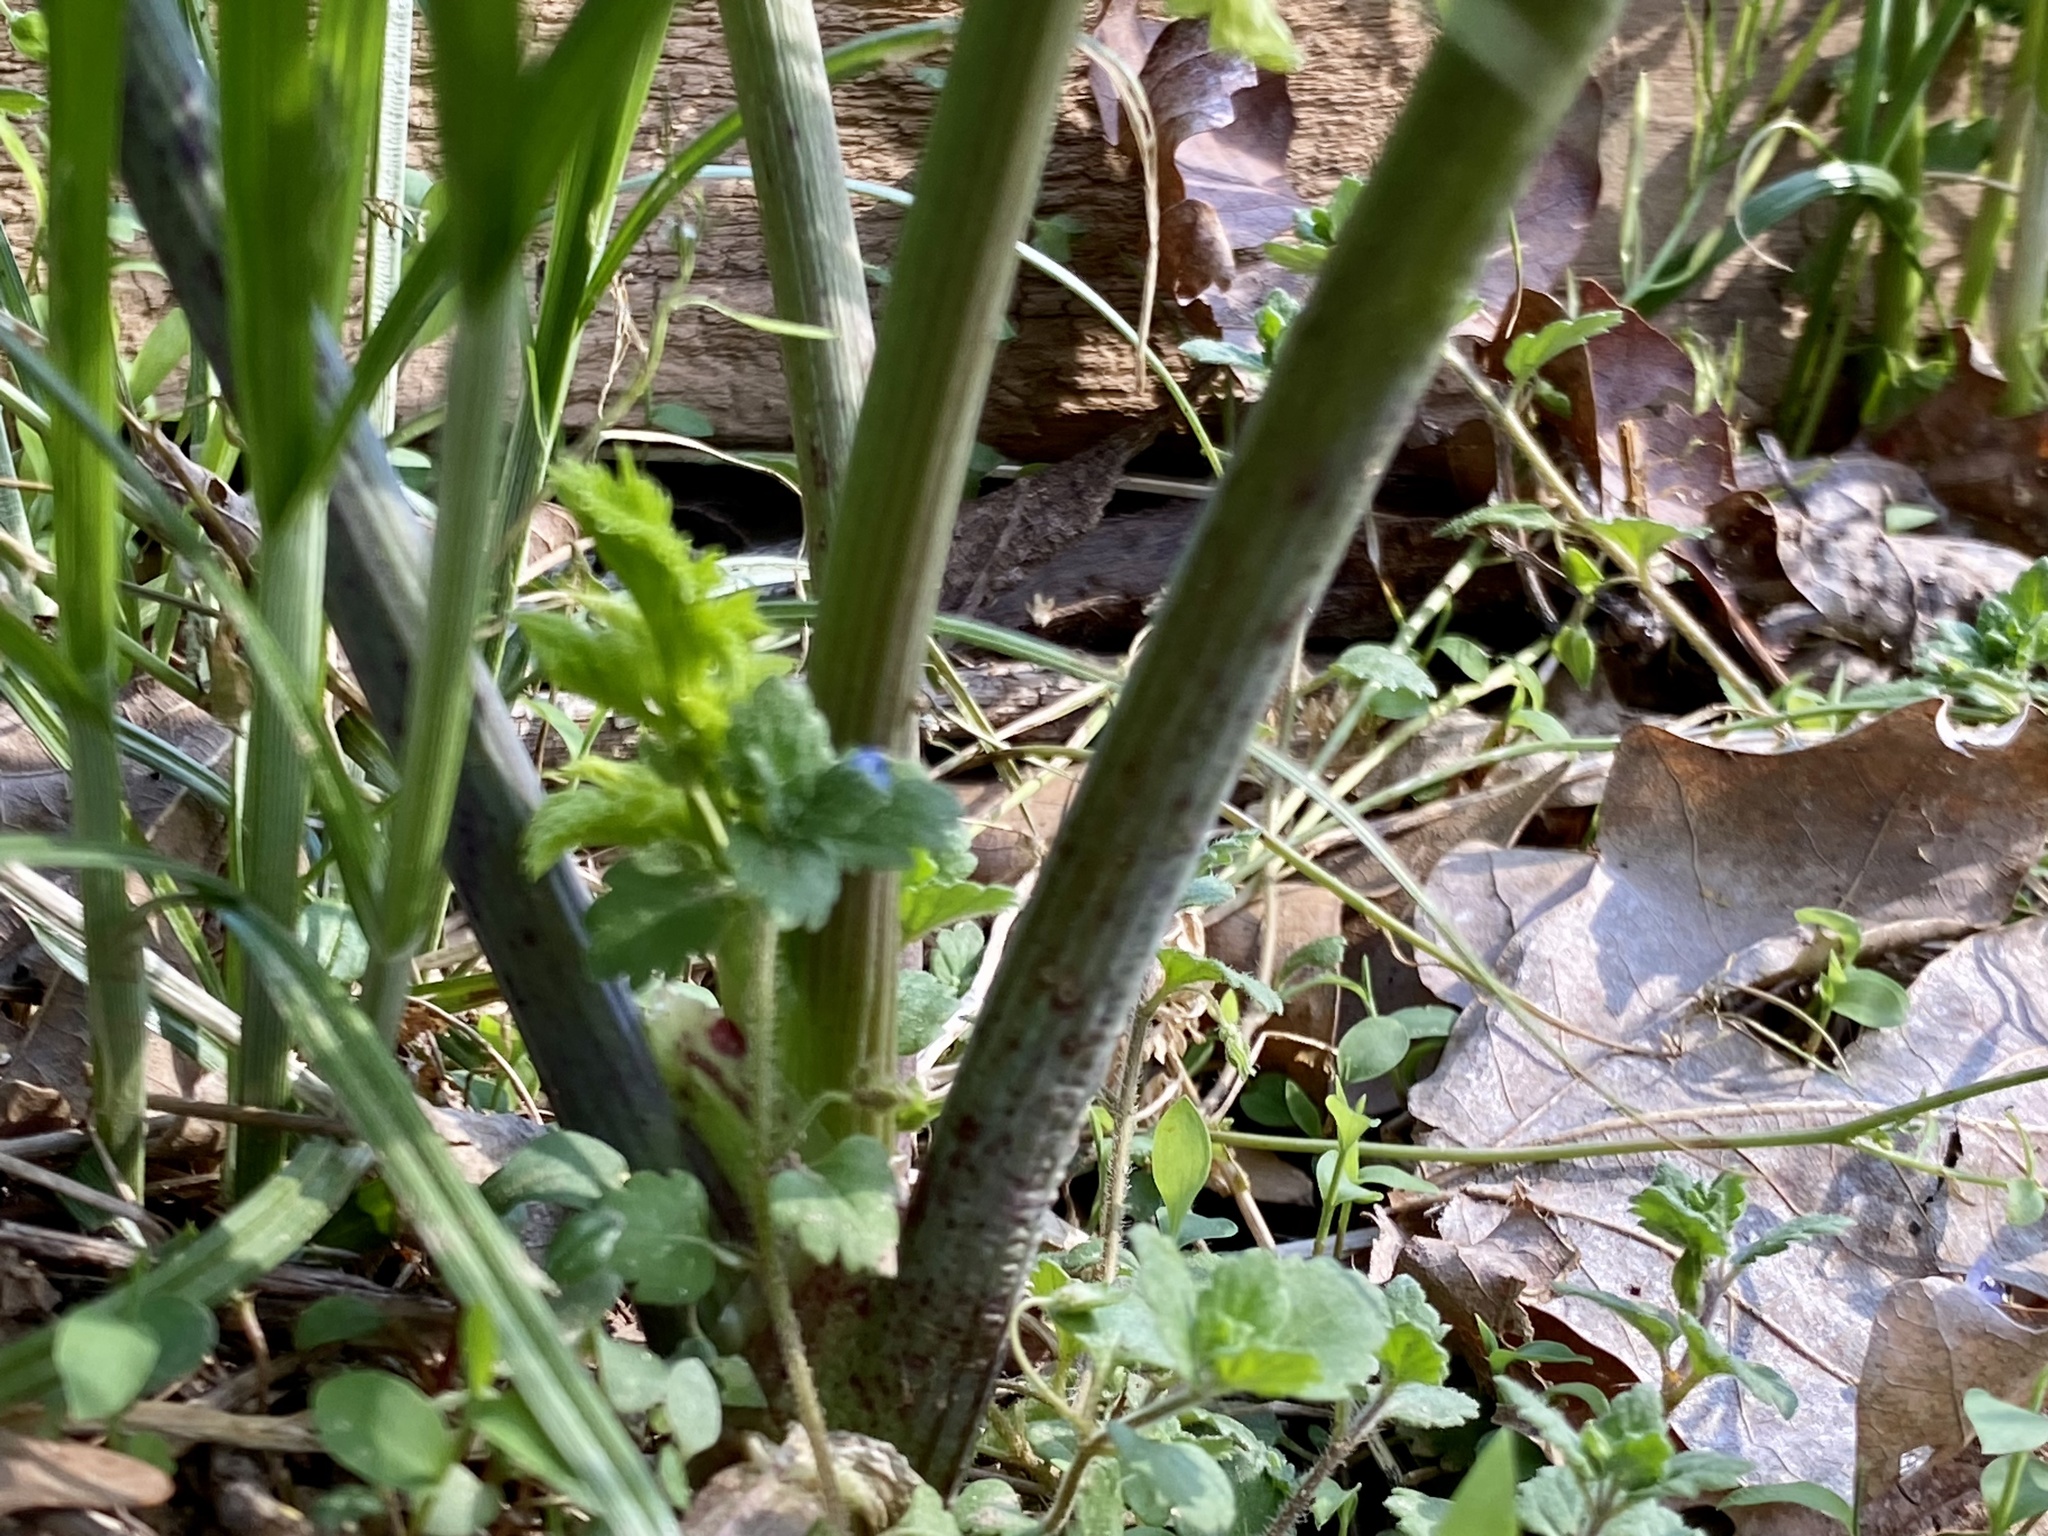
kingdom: Plantae
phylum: Tracheophyta
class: Magnoliopsida
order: Apiales
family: Apiaceae
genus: Conium
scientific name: Conium maculatum
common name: Hemlock
